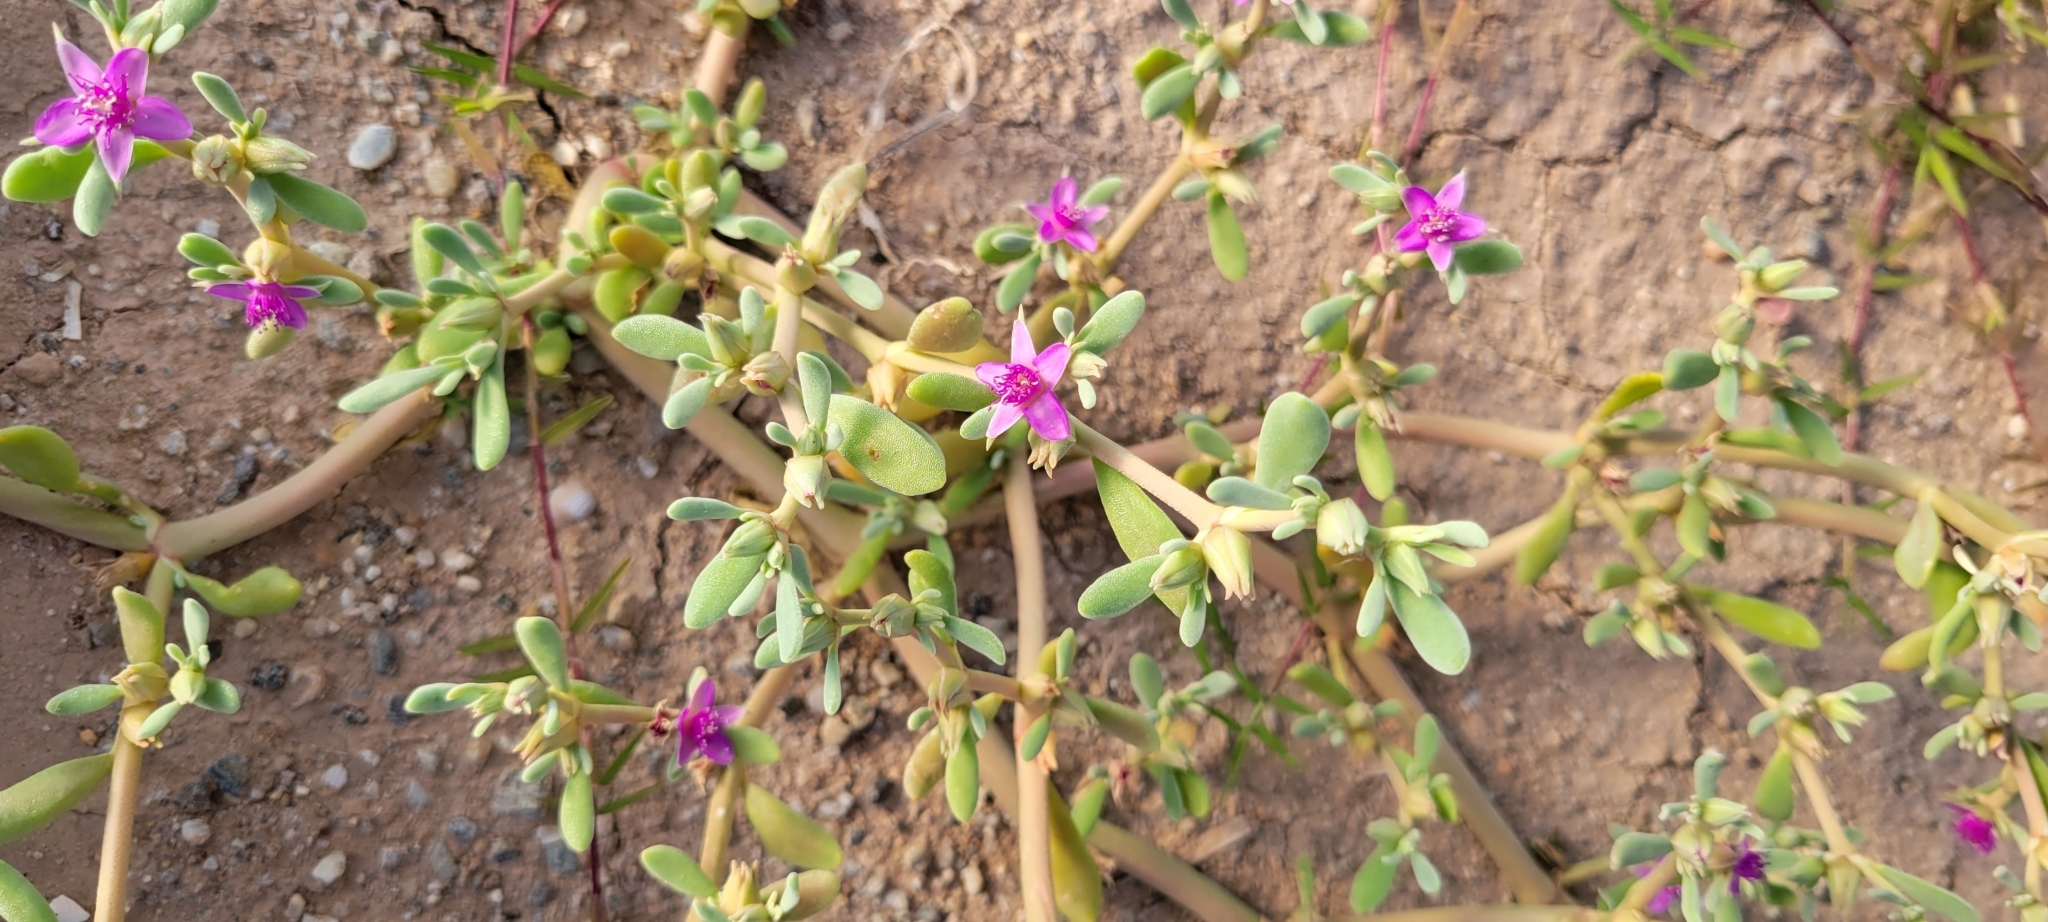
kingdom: Plantae
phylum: Tracheophyta
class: Magnoliopsida
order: Caryophyllales
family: Aizoaceae
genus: Sesuvium
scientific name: Sesuvium revolutifolium
